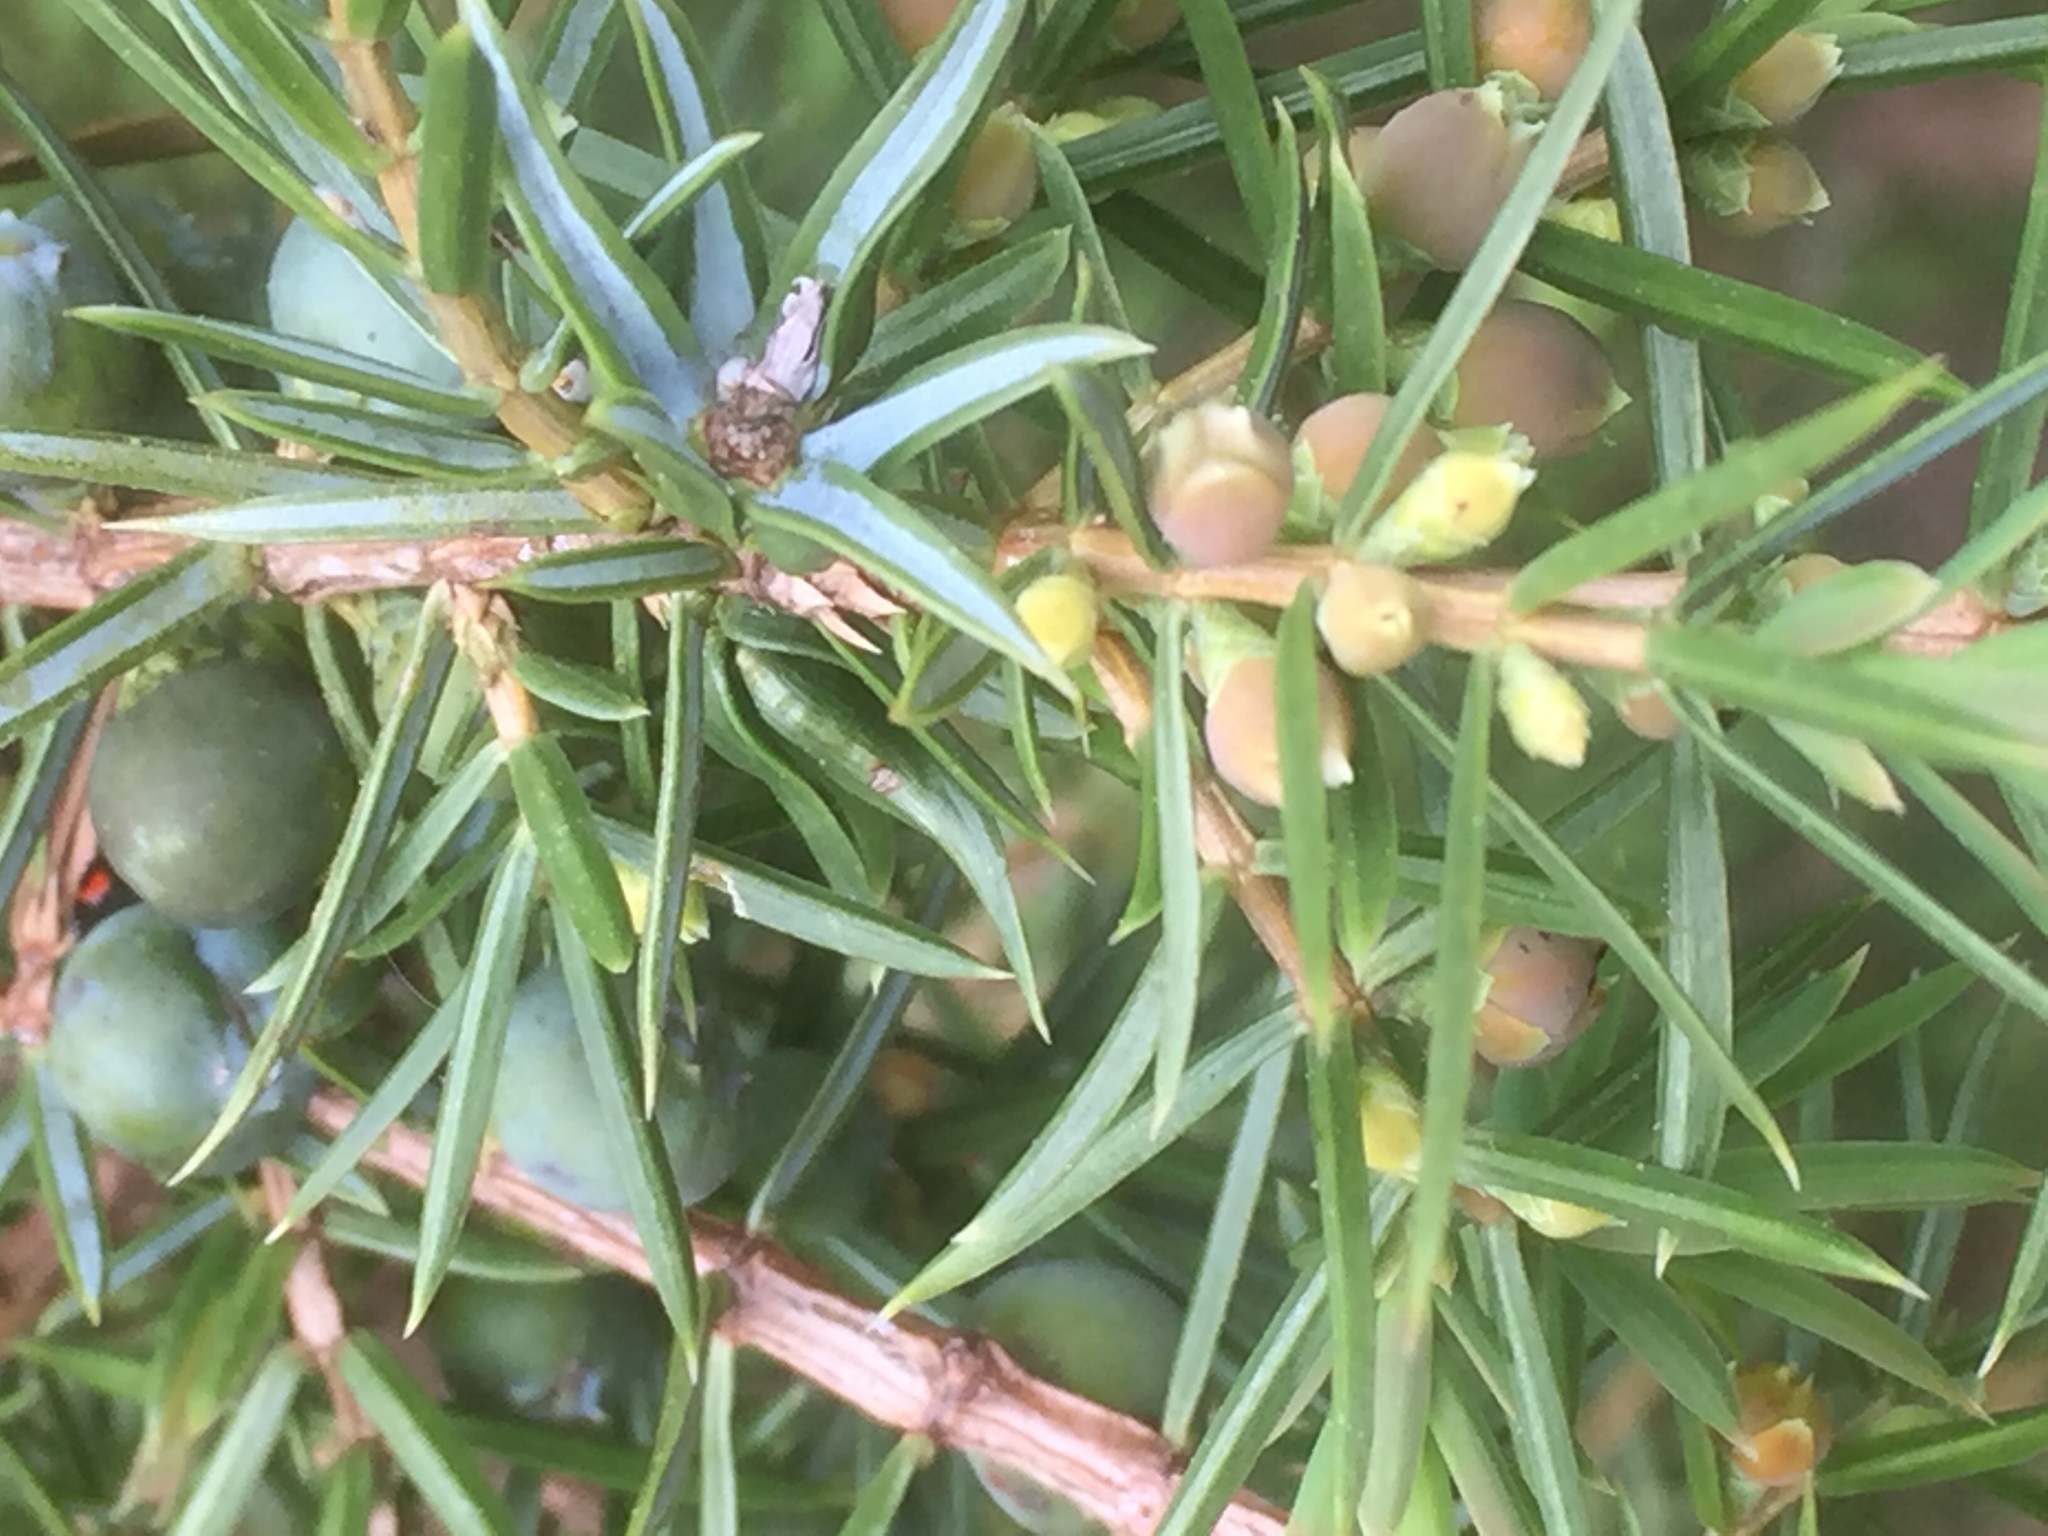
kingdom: Plantae
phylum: Tracheophyta
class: Pinopsida
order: Pinales
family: Cupressaceae
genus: Juniperus
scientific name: Juniperus communis
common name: Common juniper
